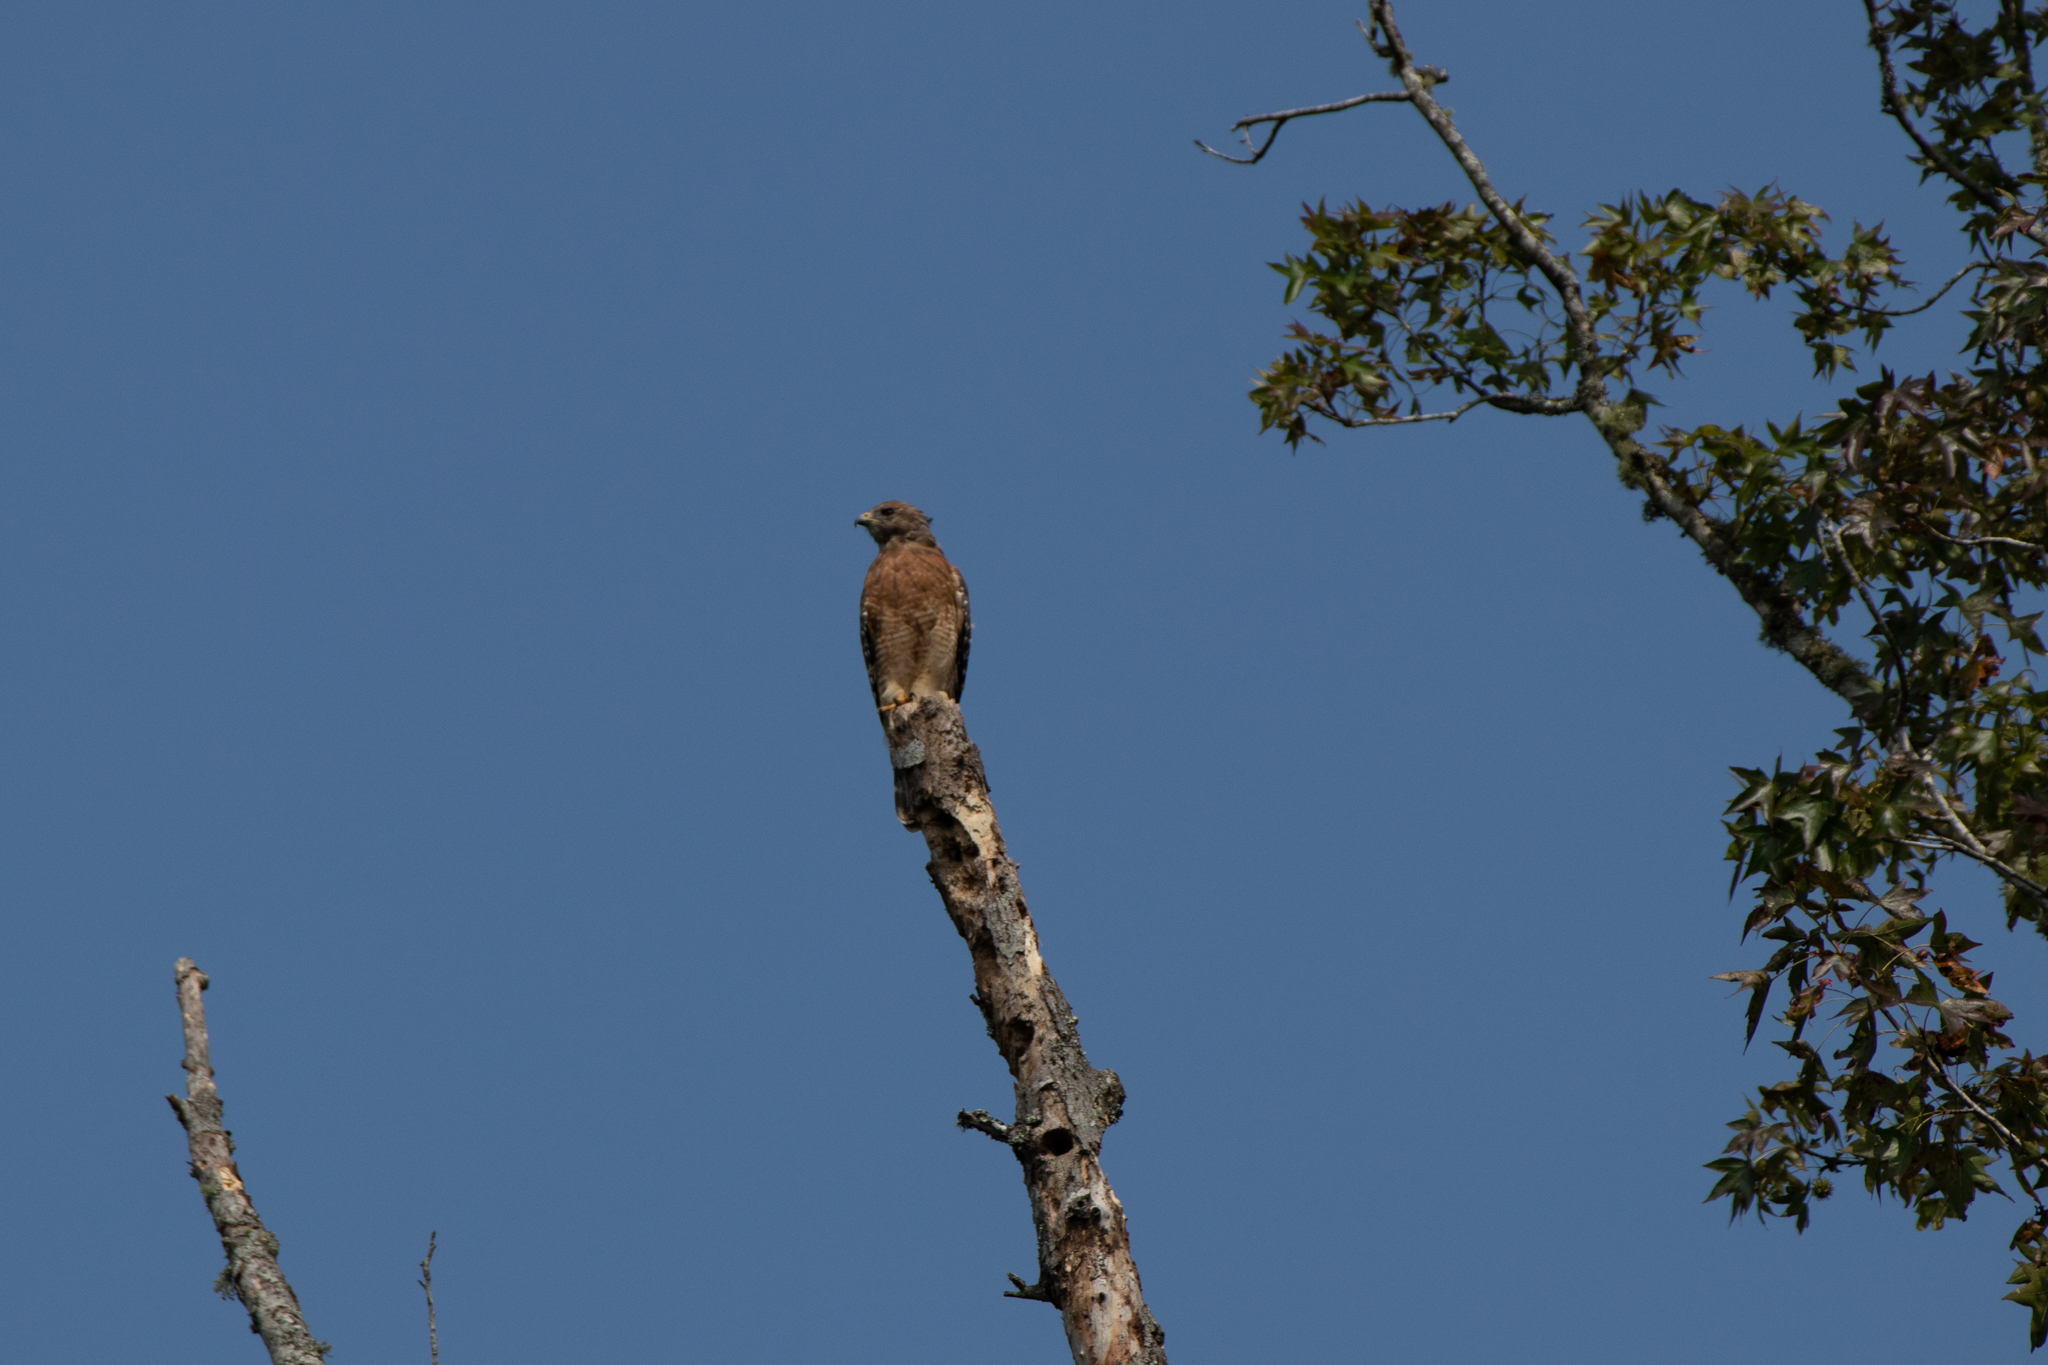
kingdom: Animalia
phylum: Chordata
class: Aves
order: Accipitriformes
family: Accipitridae
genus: Buteo
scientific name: Buteo lineatus
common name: Red-shouldered hawk
